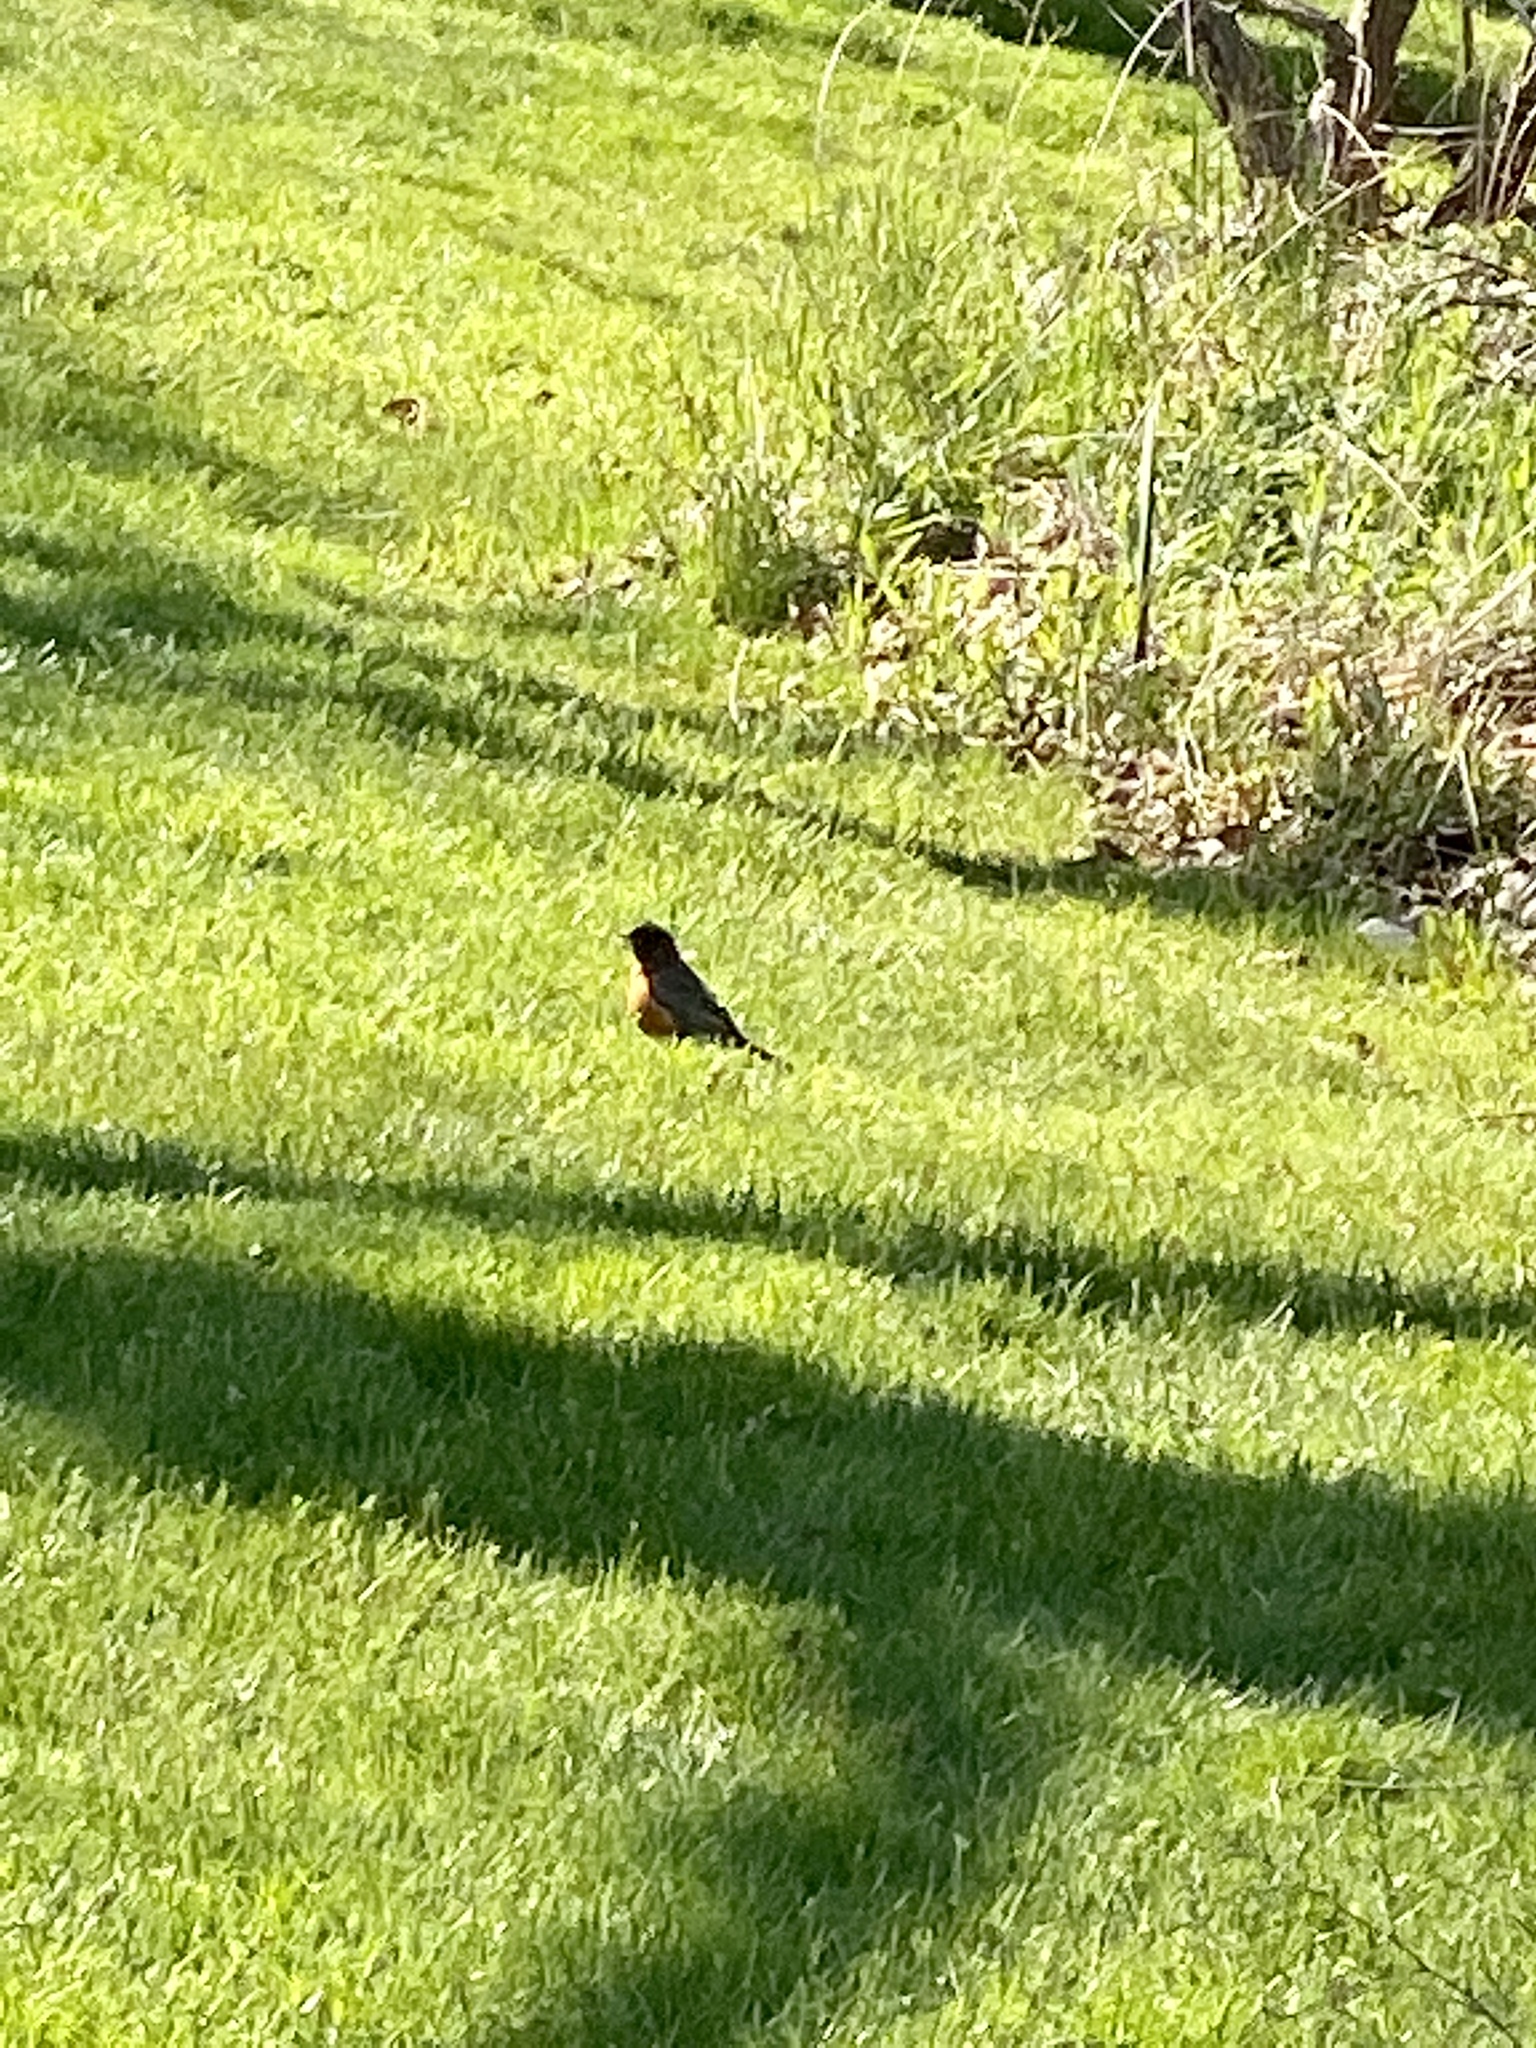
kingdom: Animalia
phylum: Chordata
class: Aves
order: Passeriformes
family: Turdidae
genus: Turdus
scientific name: Turdus migratorius
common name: American robin
